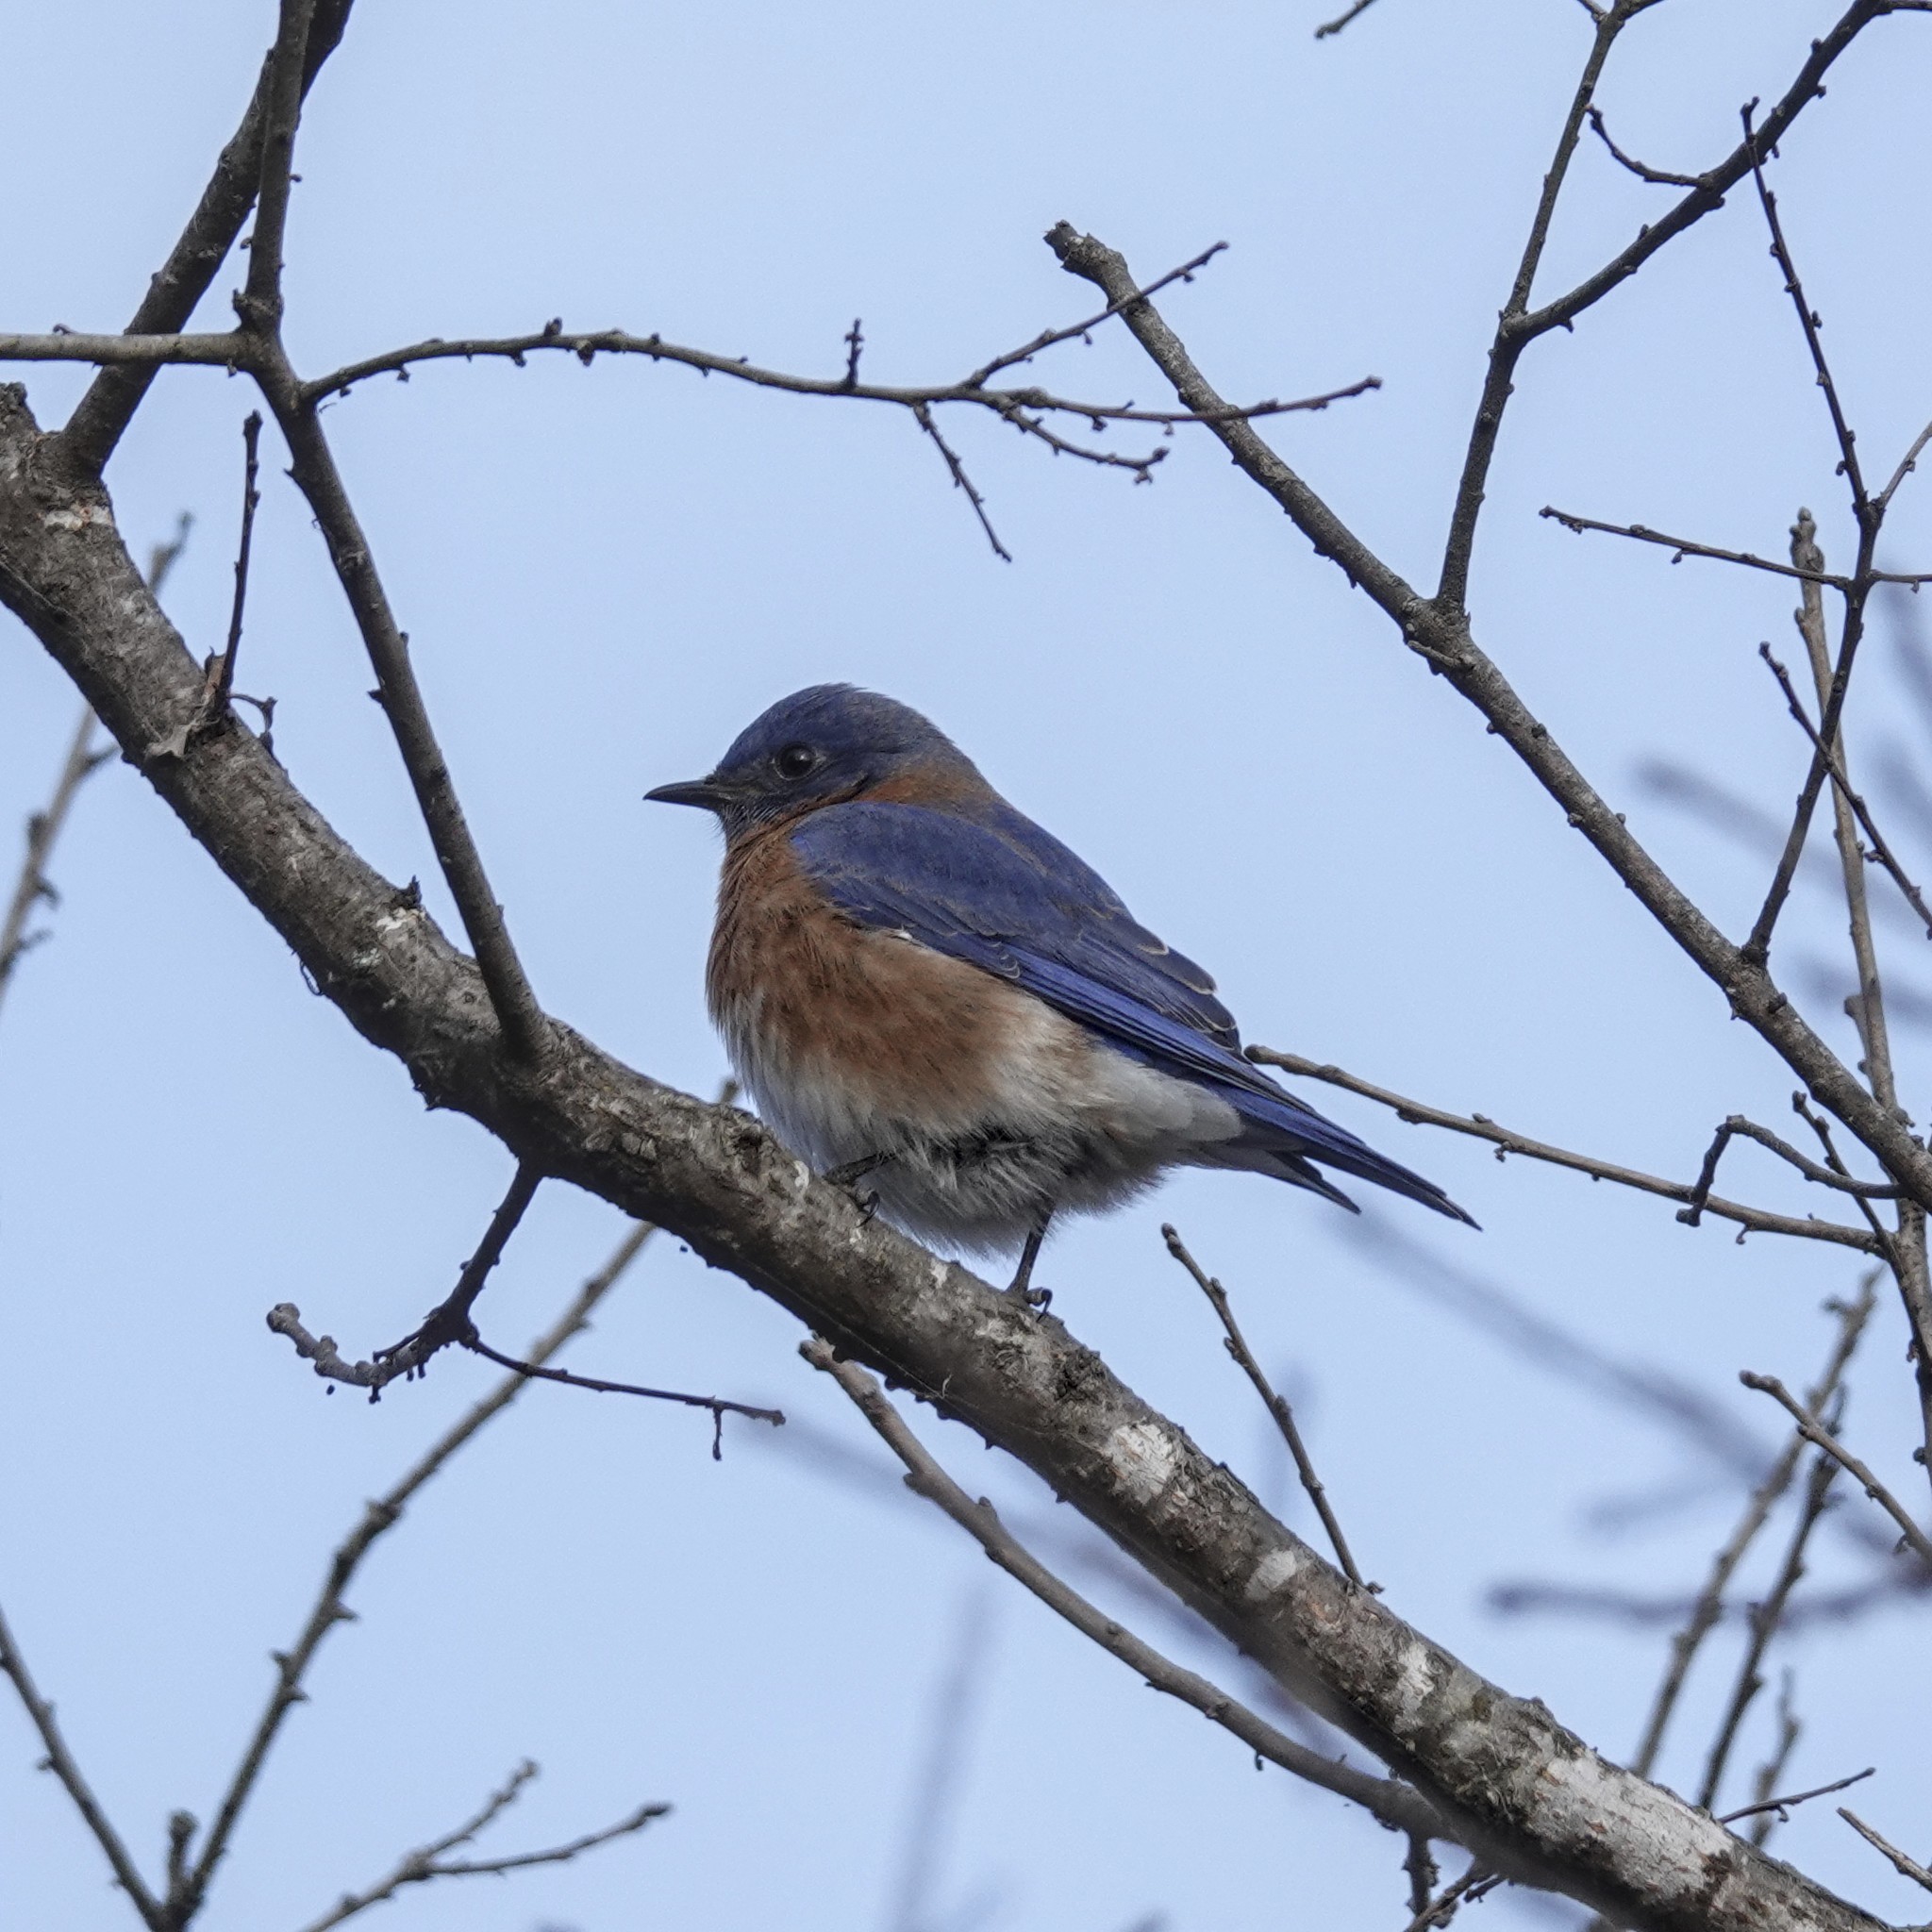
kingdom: Animalia
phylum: Chordata
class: Aves
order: Passeriformes
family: Turdidae
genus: Sialia
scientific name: Sialia sialis
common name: Eastern bluebird
